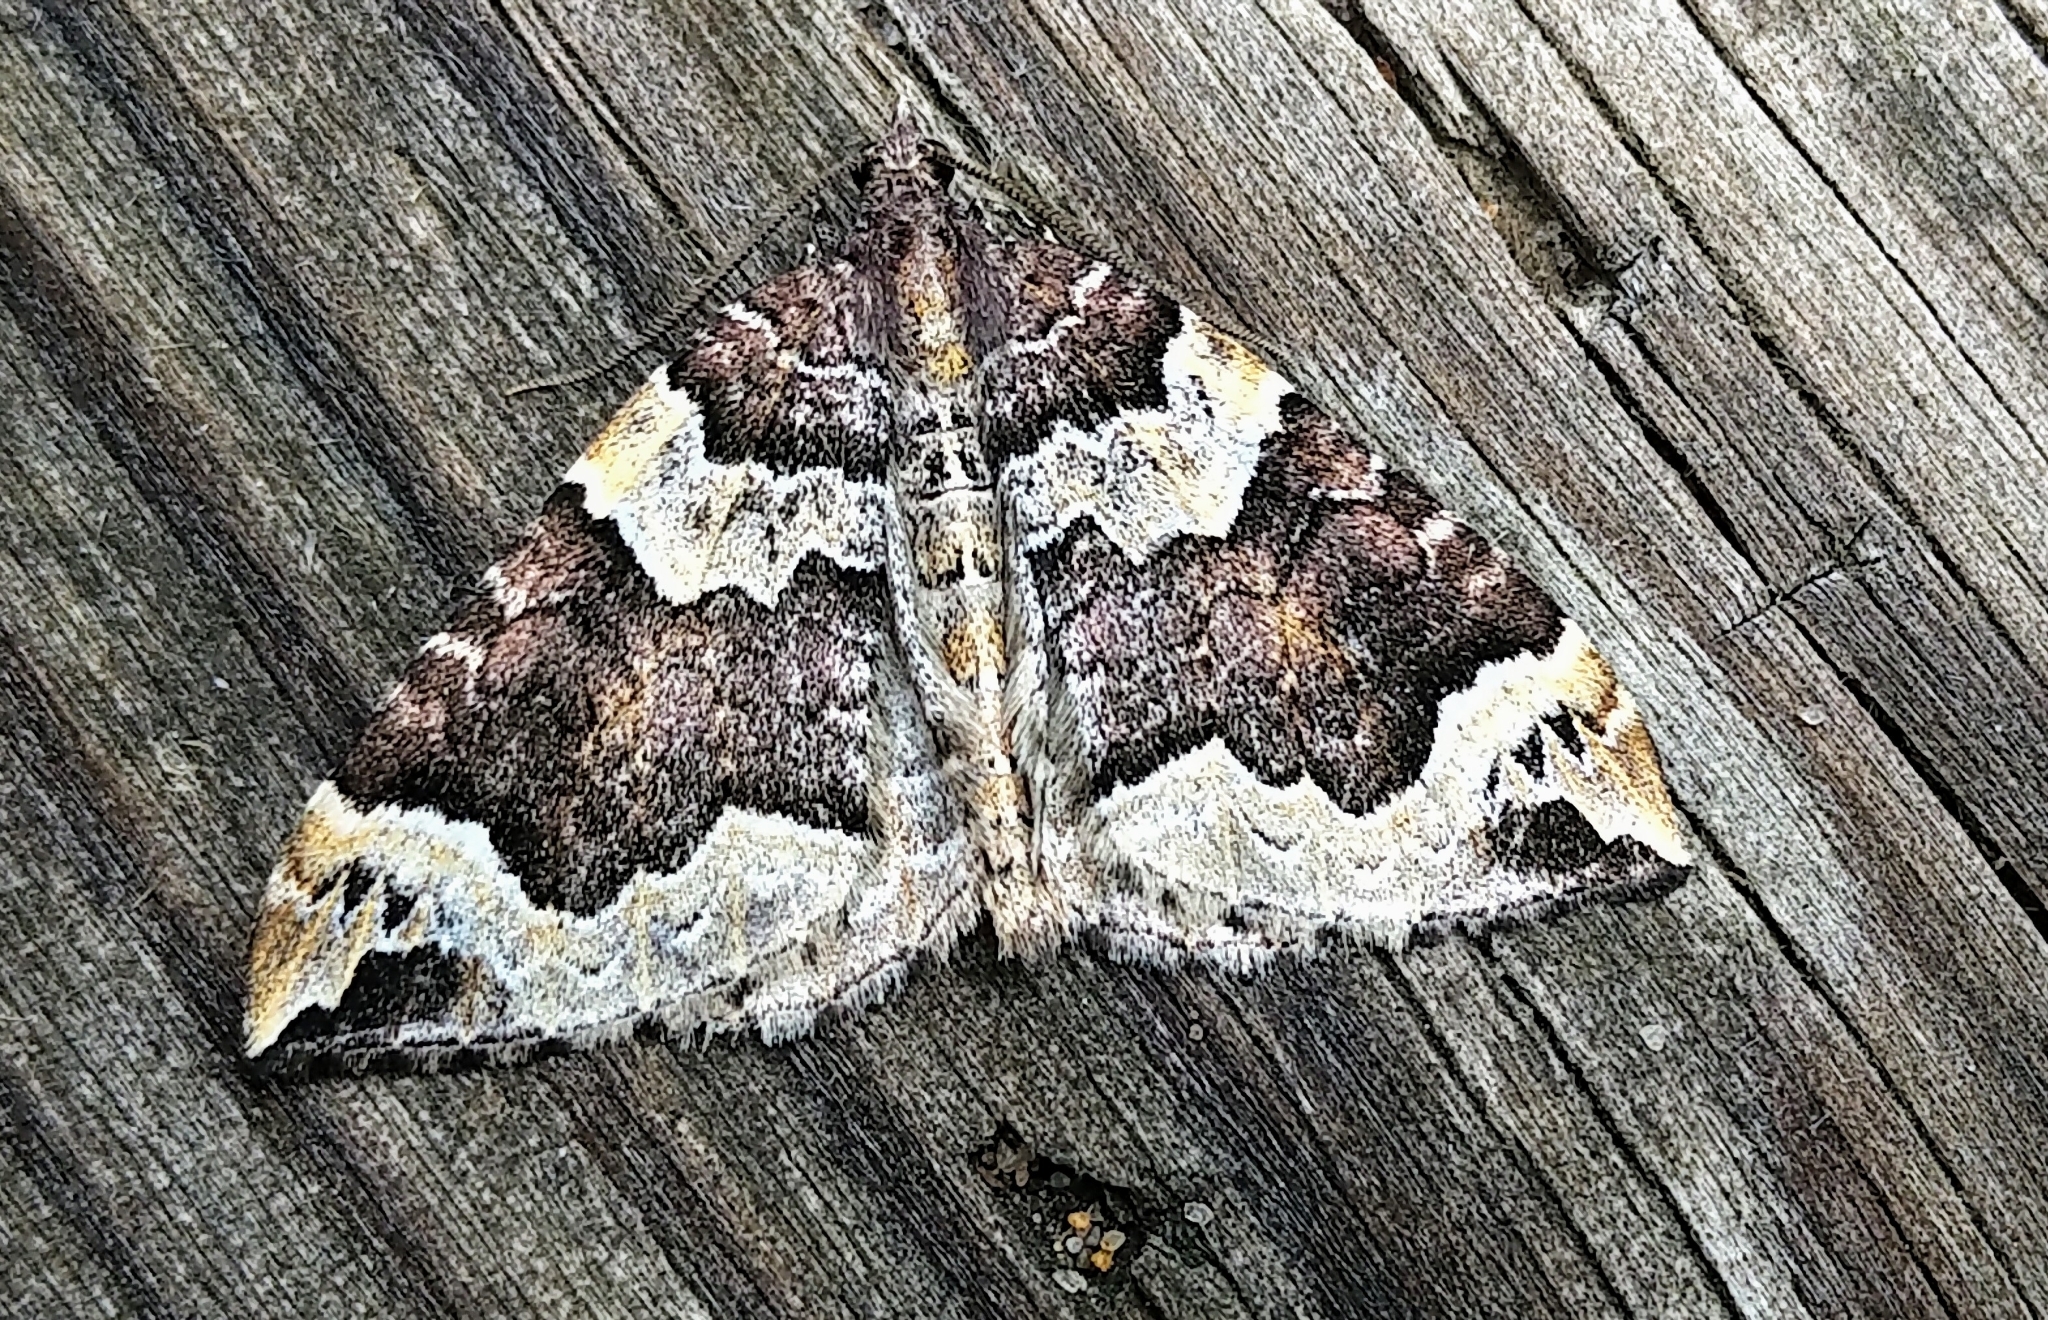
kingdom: Animalia
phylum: Arthropoda
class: Insecta
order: Lepidoptera
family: Geometridae
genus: Eulithis
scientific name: Eulithis xylina
